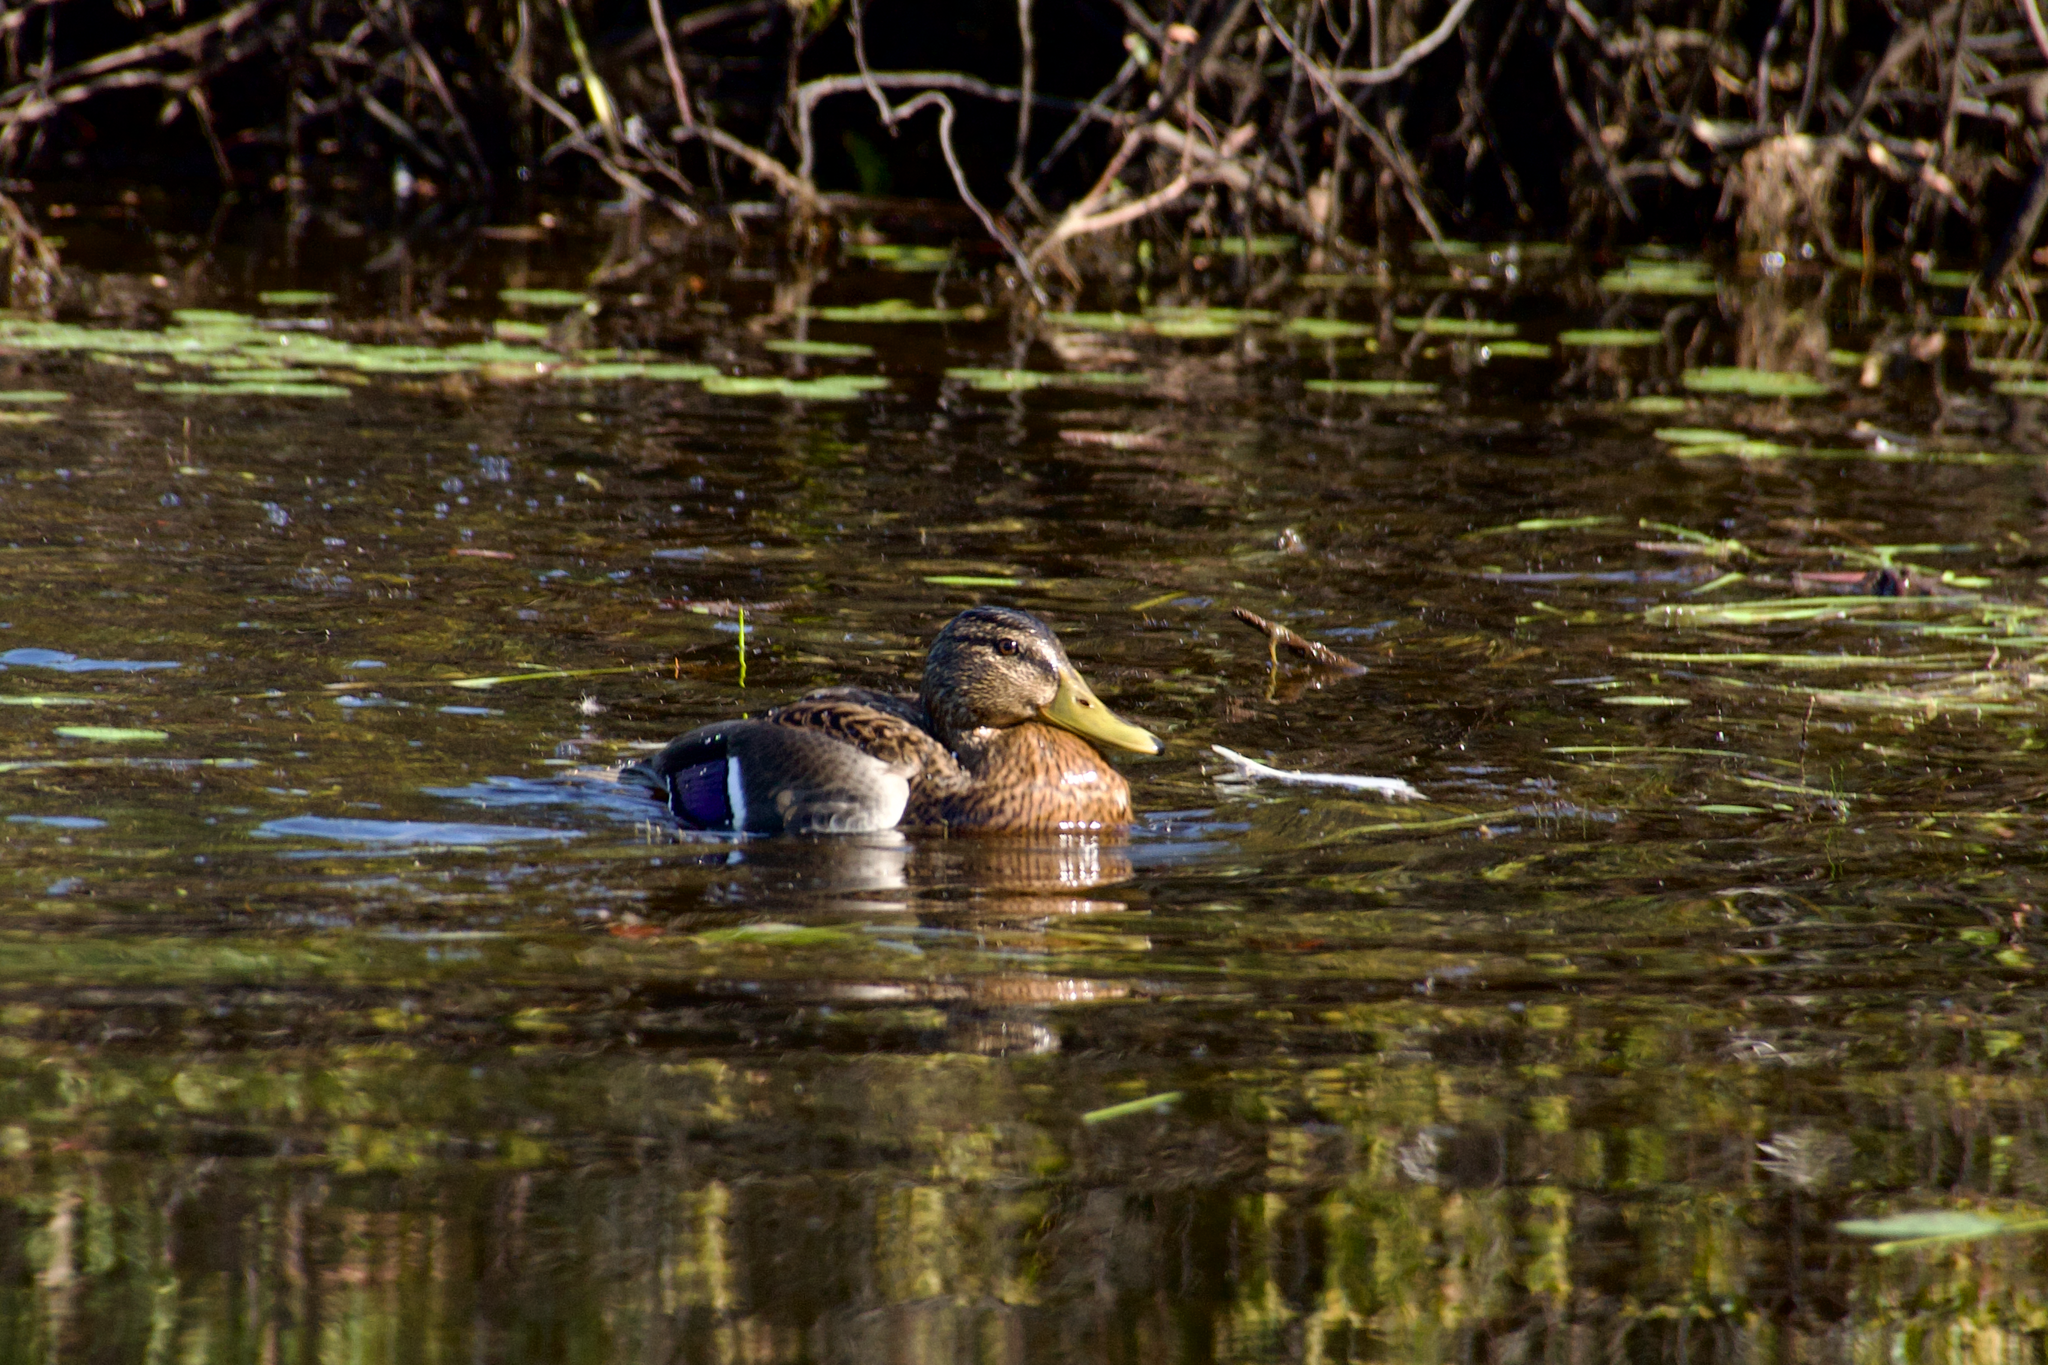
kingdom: Animalia
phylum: Chordata
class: Aves
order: Anseriformes
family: Anatidae
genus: Anas
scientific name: Anas platyrhynchos
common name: Mallard
